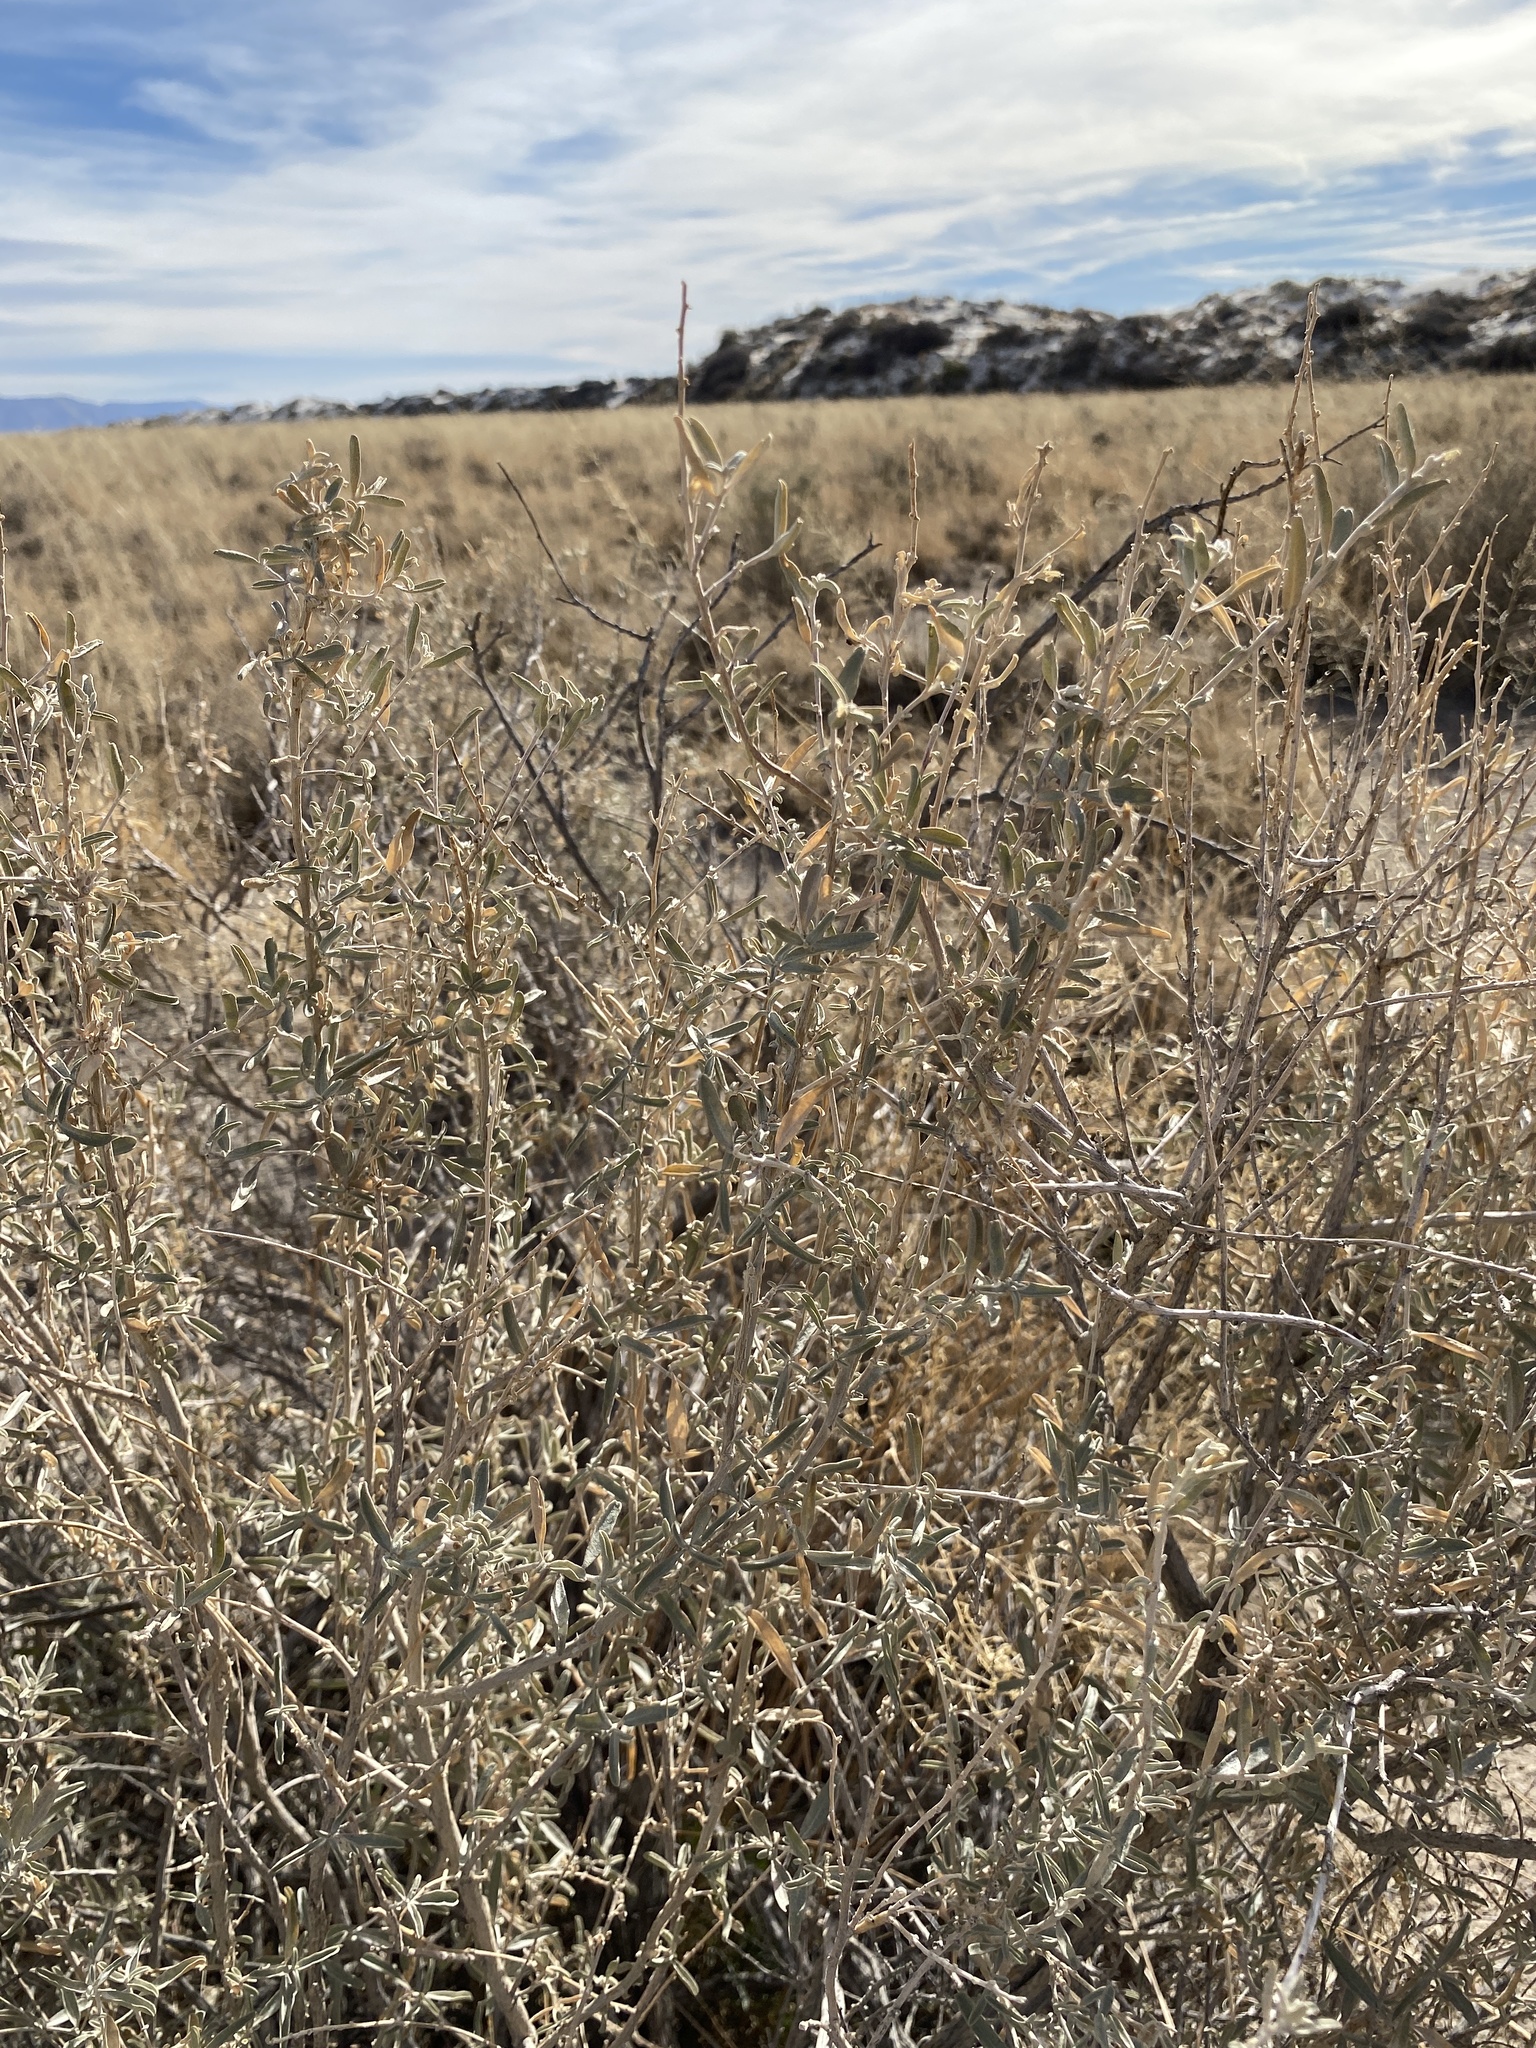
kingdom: Plantae
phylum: Tracheophyta
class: Magnoliopsida
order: Caryophyllales
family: Amaranthaceae
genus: Atriplex
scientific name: Atriplex canescens
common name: Four-wing saltbush
